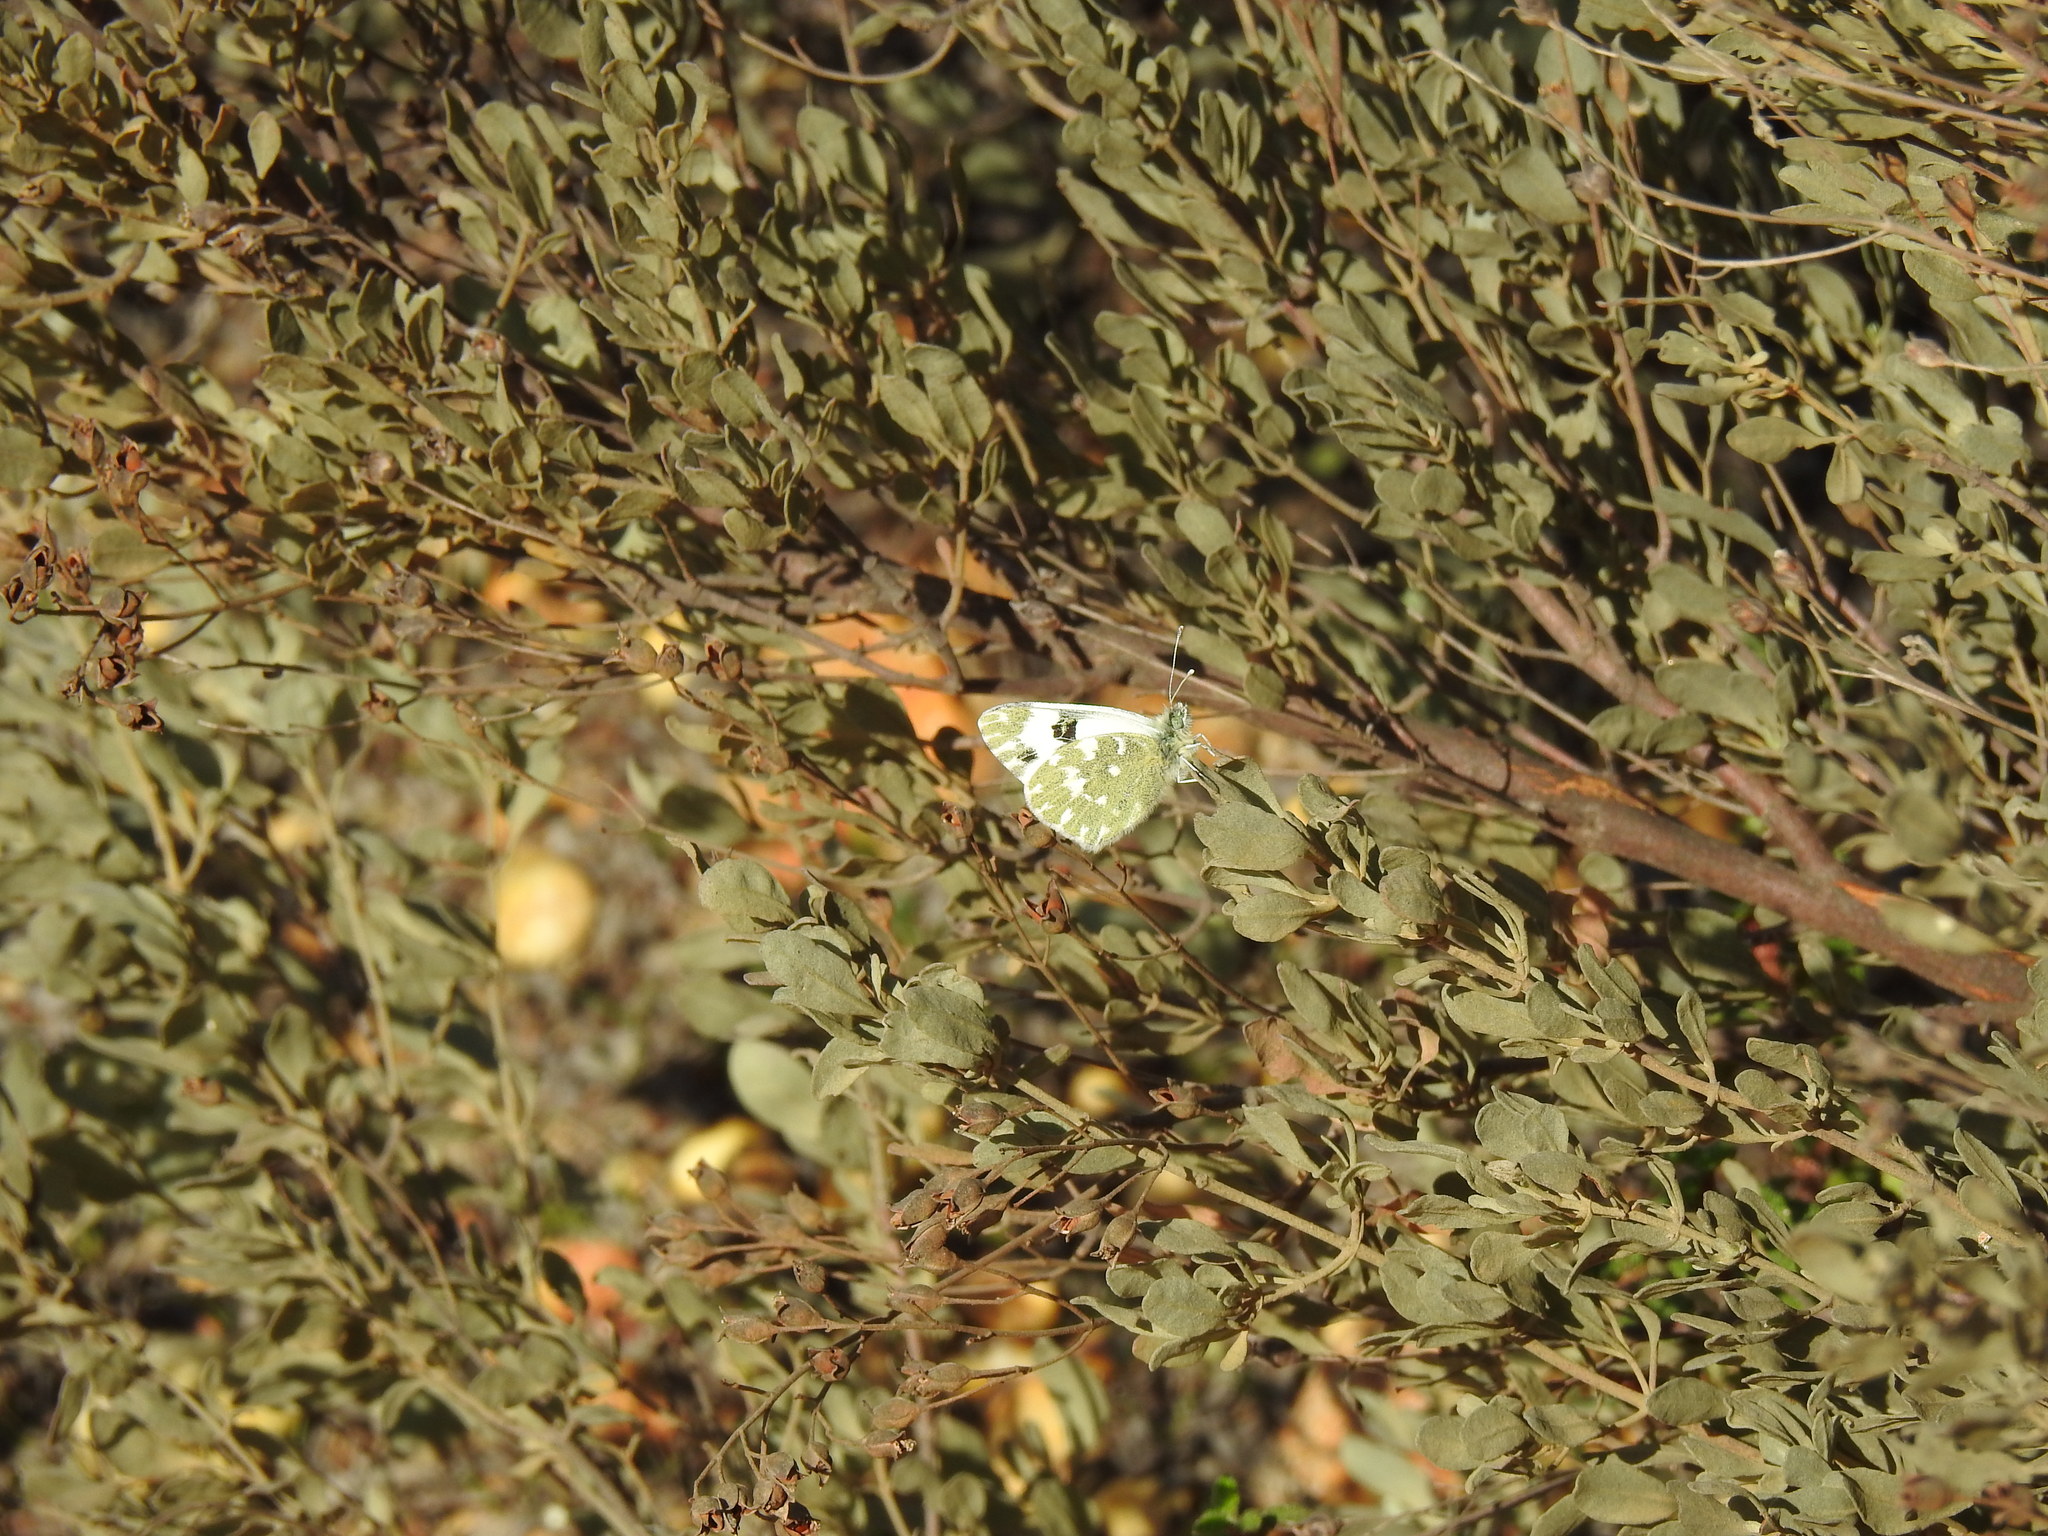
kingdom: Animalia
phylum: Arthropoda
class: Insecta
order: Lepidoptera
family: Pieridae
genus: Pontia
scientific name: Pontia daplidice
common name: Bath white
